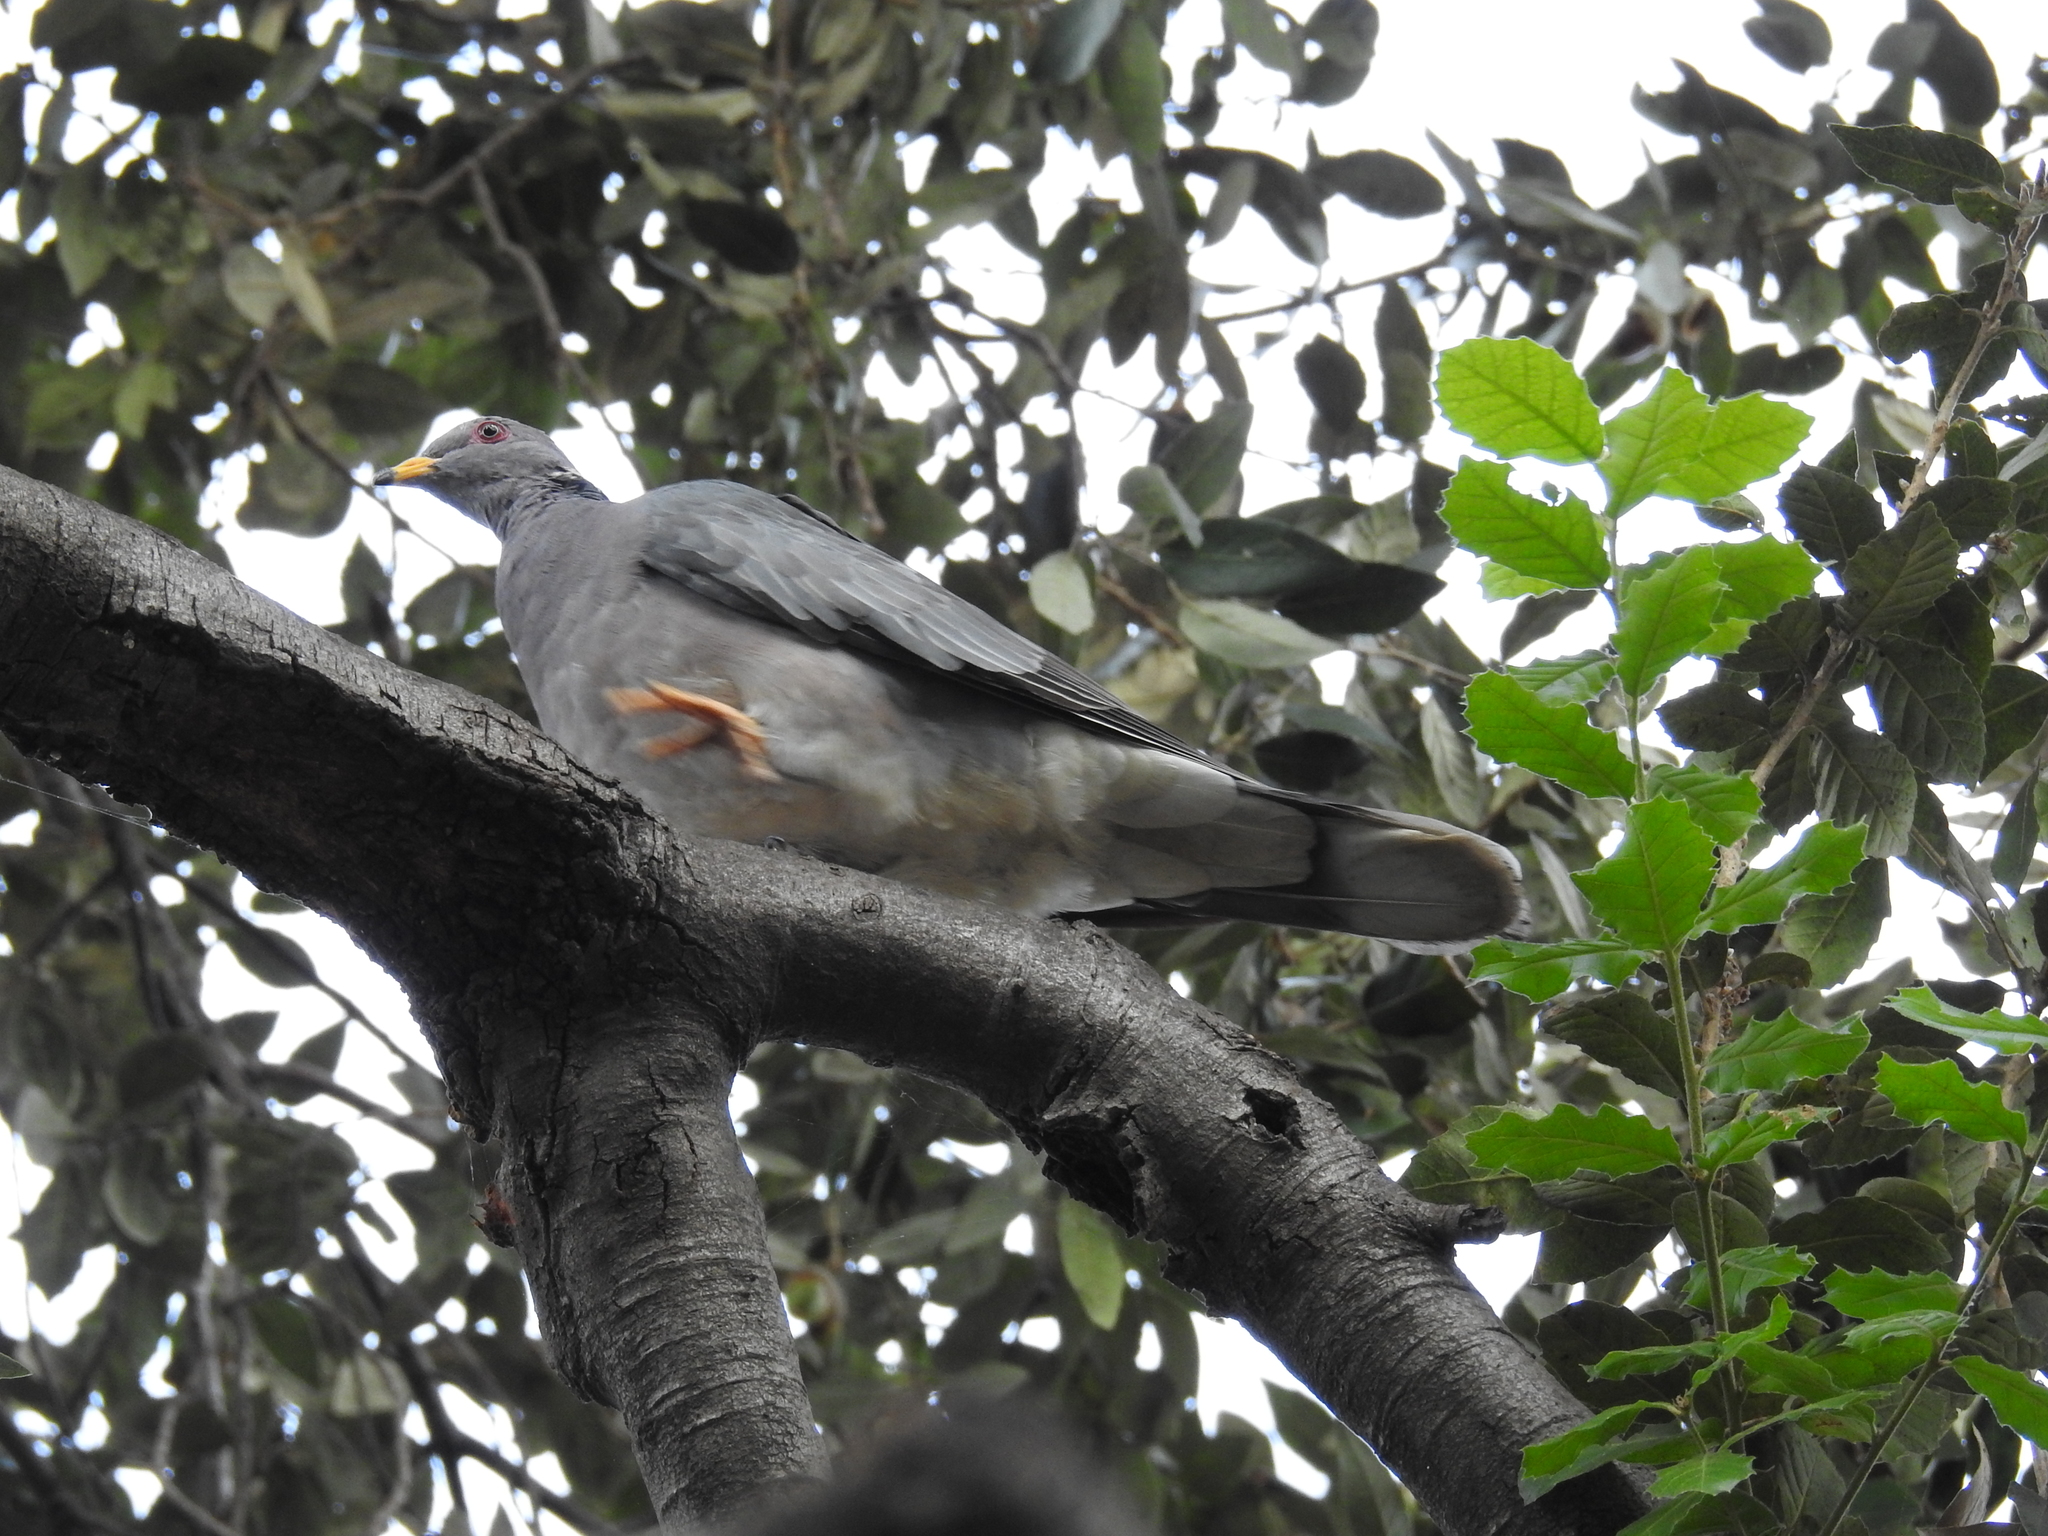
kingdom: Animalia
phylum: Chordata
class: Aves
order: Columbiformes
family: Columbidae
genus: Patagioenas
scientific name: Patagioenas fasciata
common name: Band-tailed pigeon
